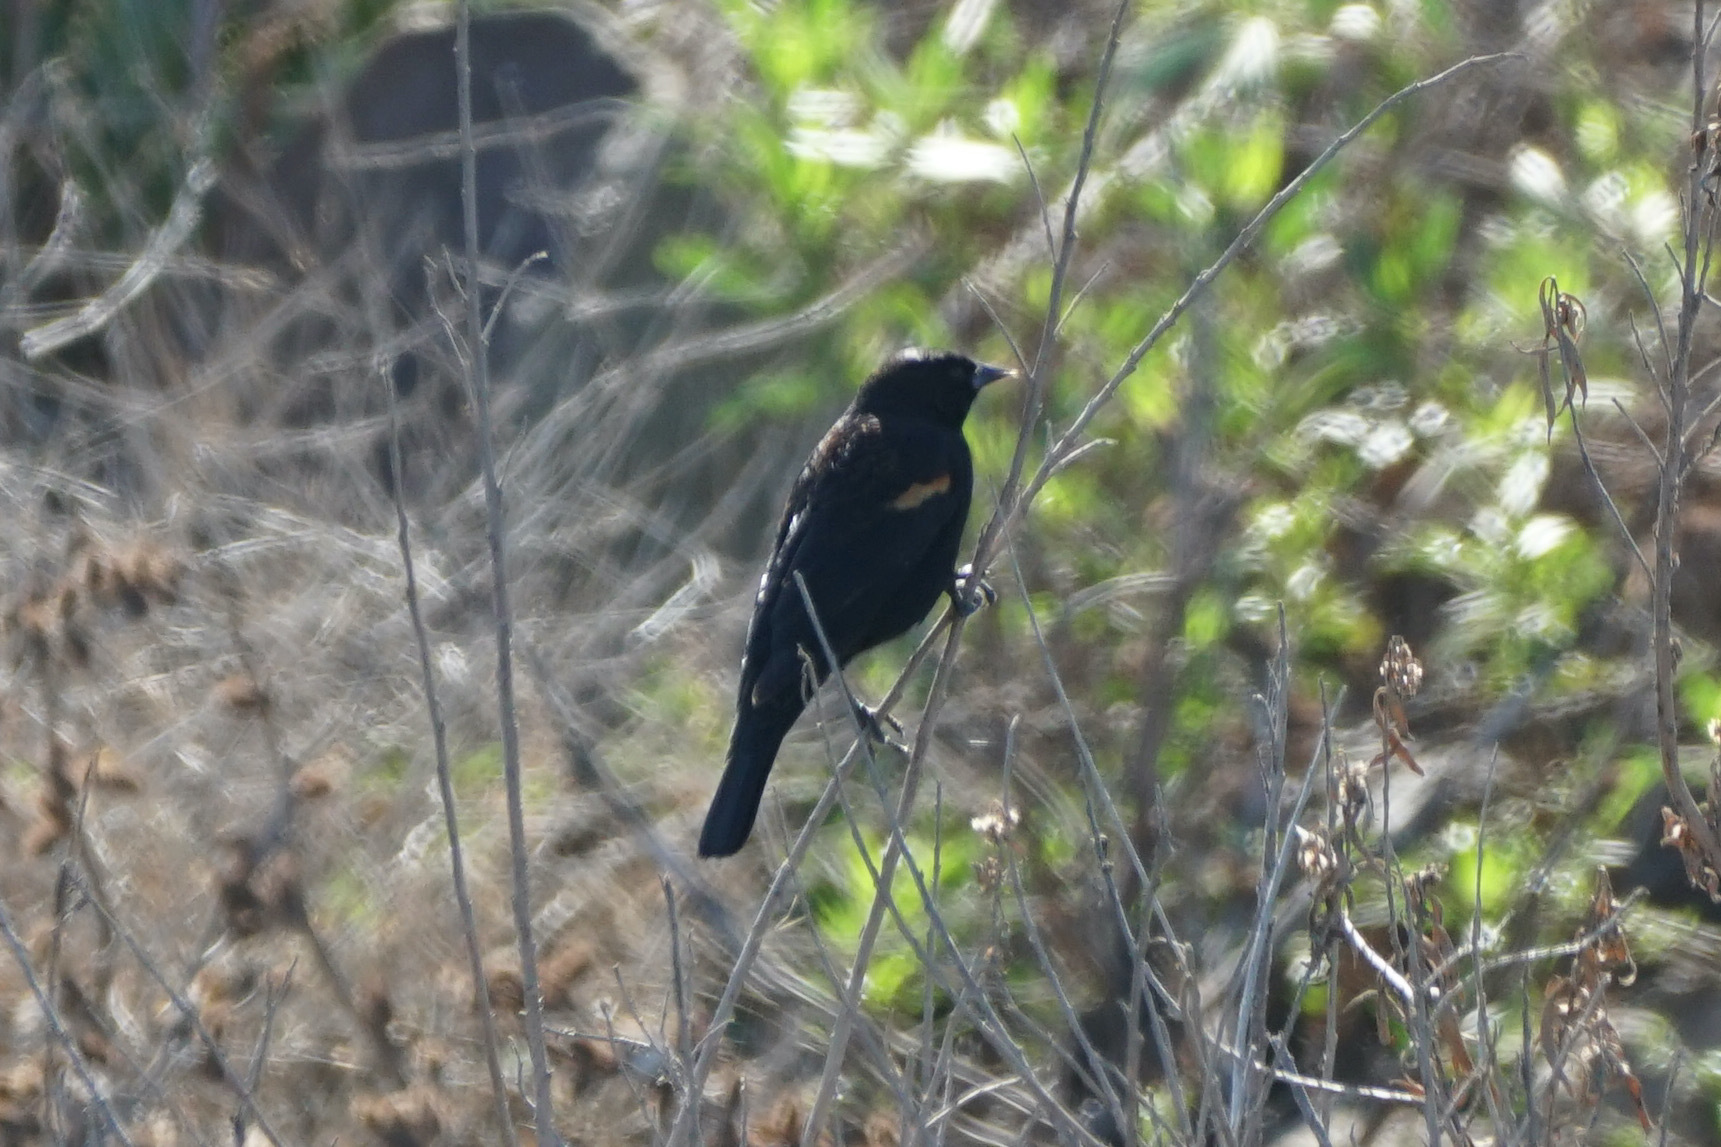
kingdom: Animalia
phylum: Chordata
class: Aves
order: Passeriformes
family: Icteridae
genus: Agelaius
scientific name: Agelaius phoeniceus
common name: Red-winged blackbird
